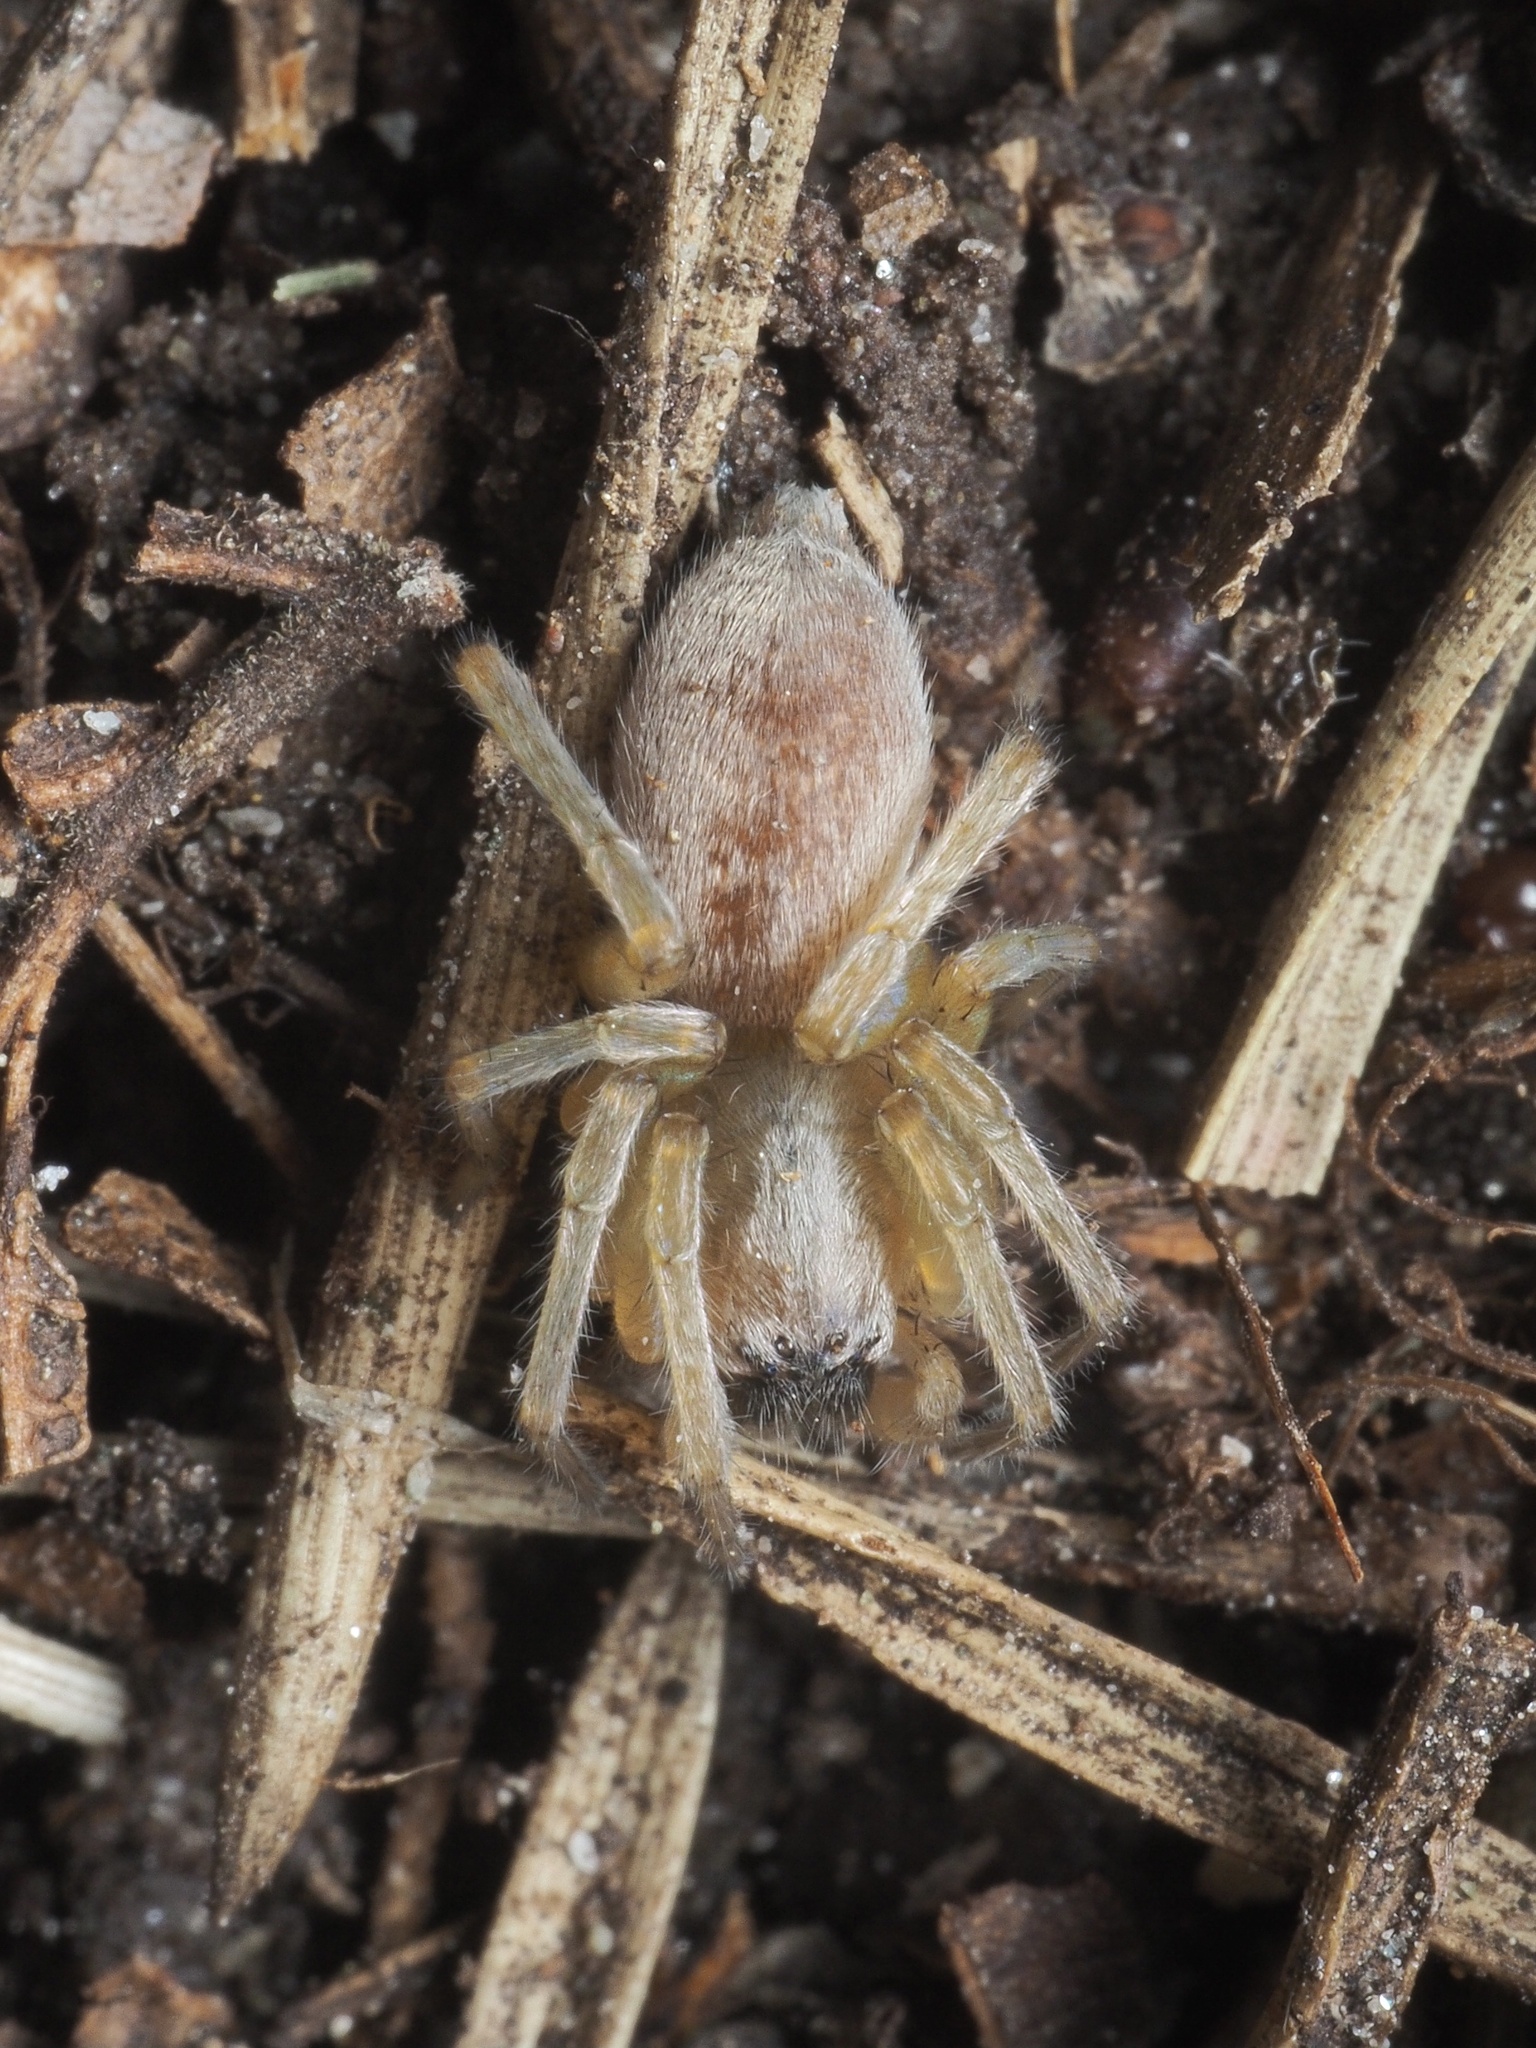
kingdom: Animalia
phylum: Arthropoda
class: Arachnida
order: Araneae
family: Clubionidae
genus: Clubiona
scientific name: Clubiona
